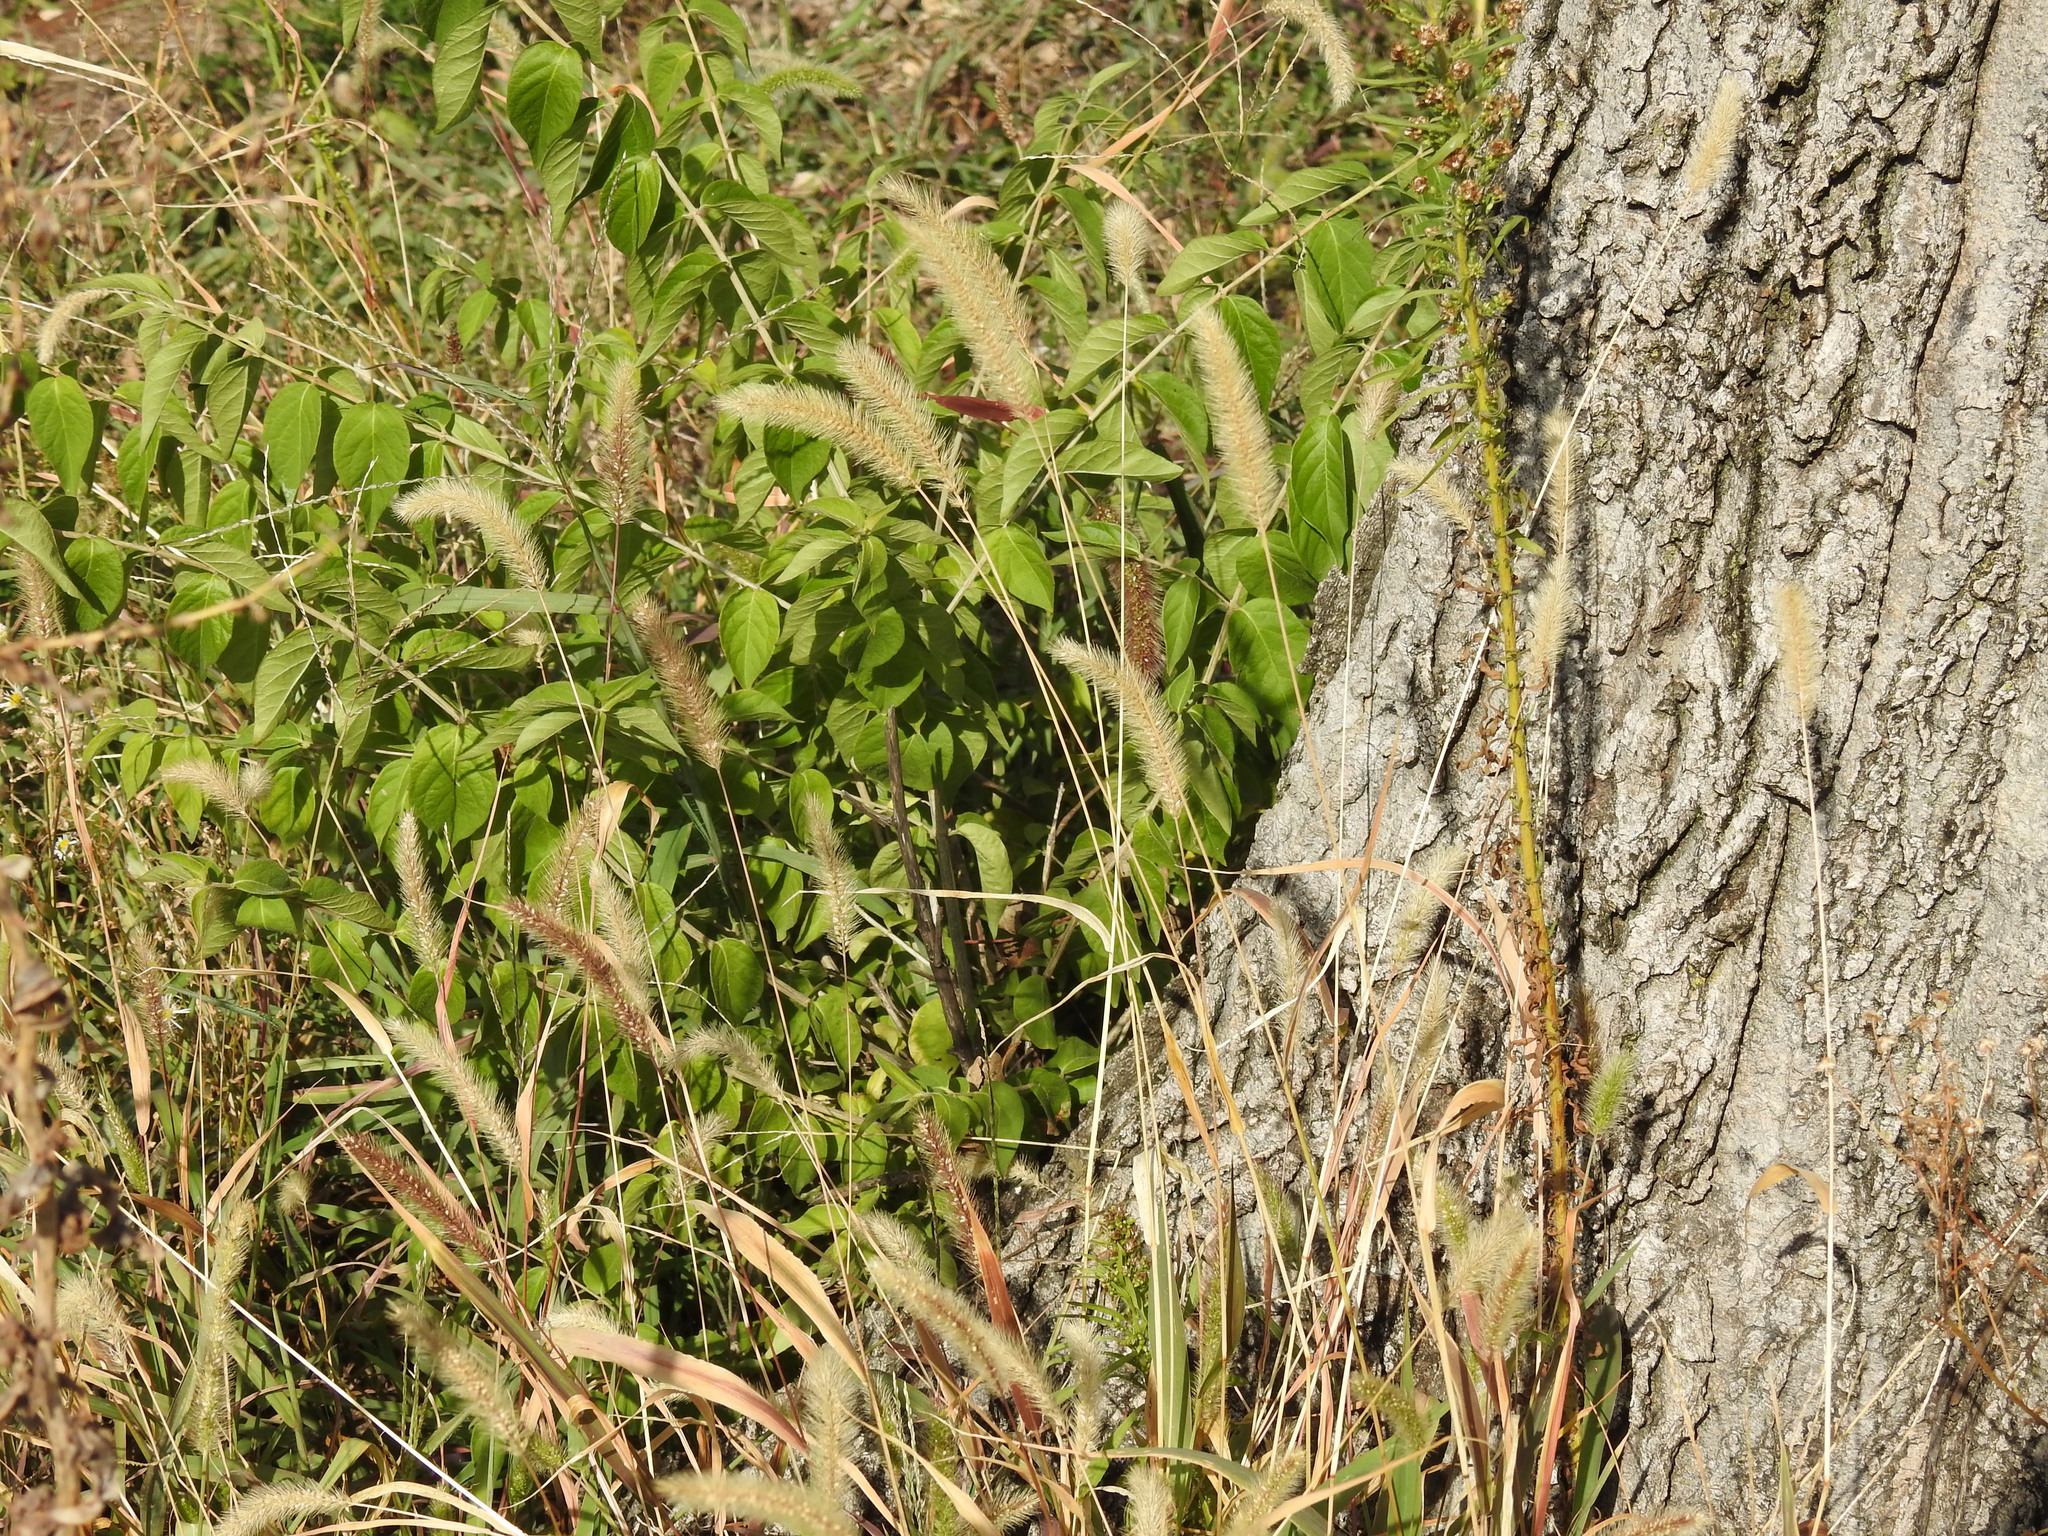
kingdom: Plantae
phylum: Tracheophyta
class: Liliopsida
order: Poales
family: Poaceae
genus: Setaria
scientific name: Setaria viridis
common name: Green bristlegrass
